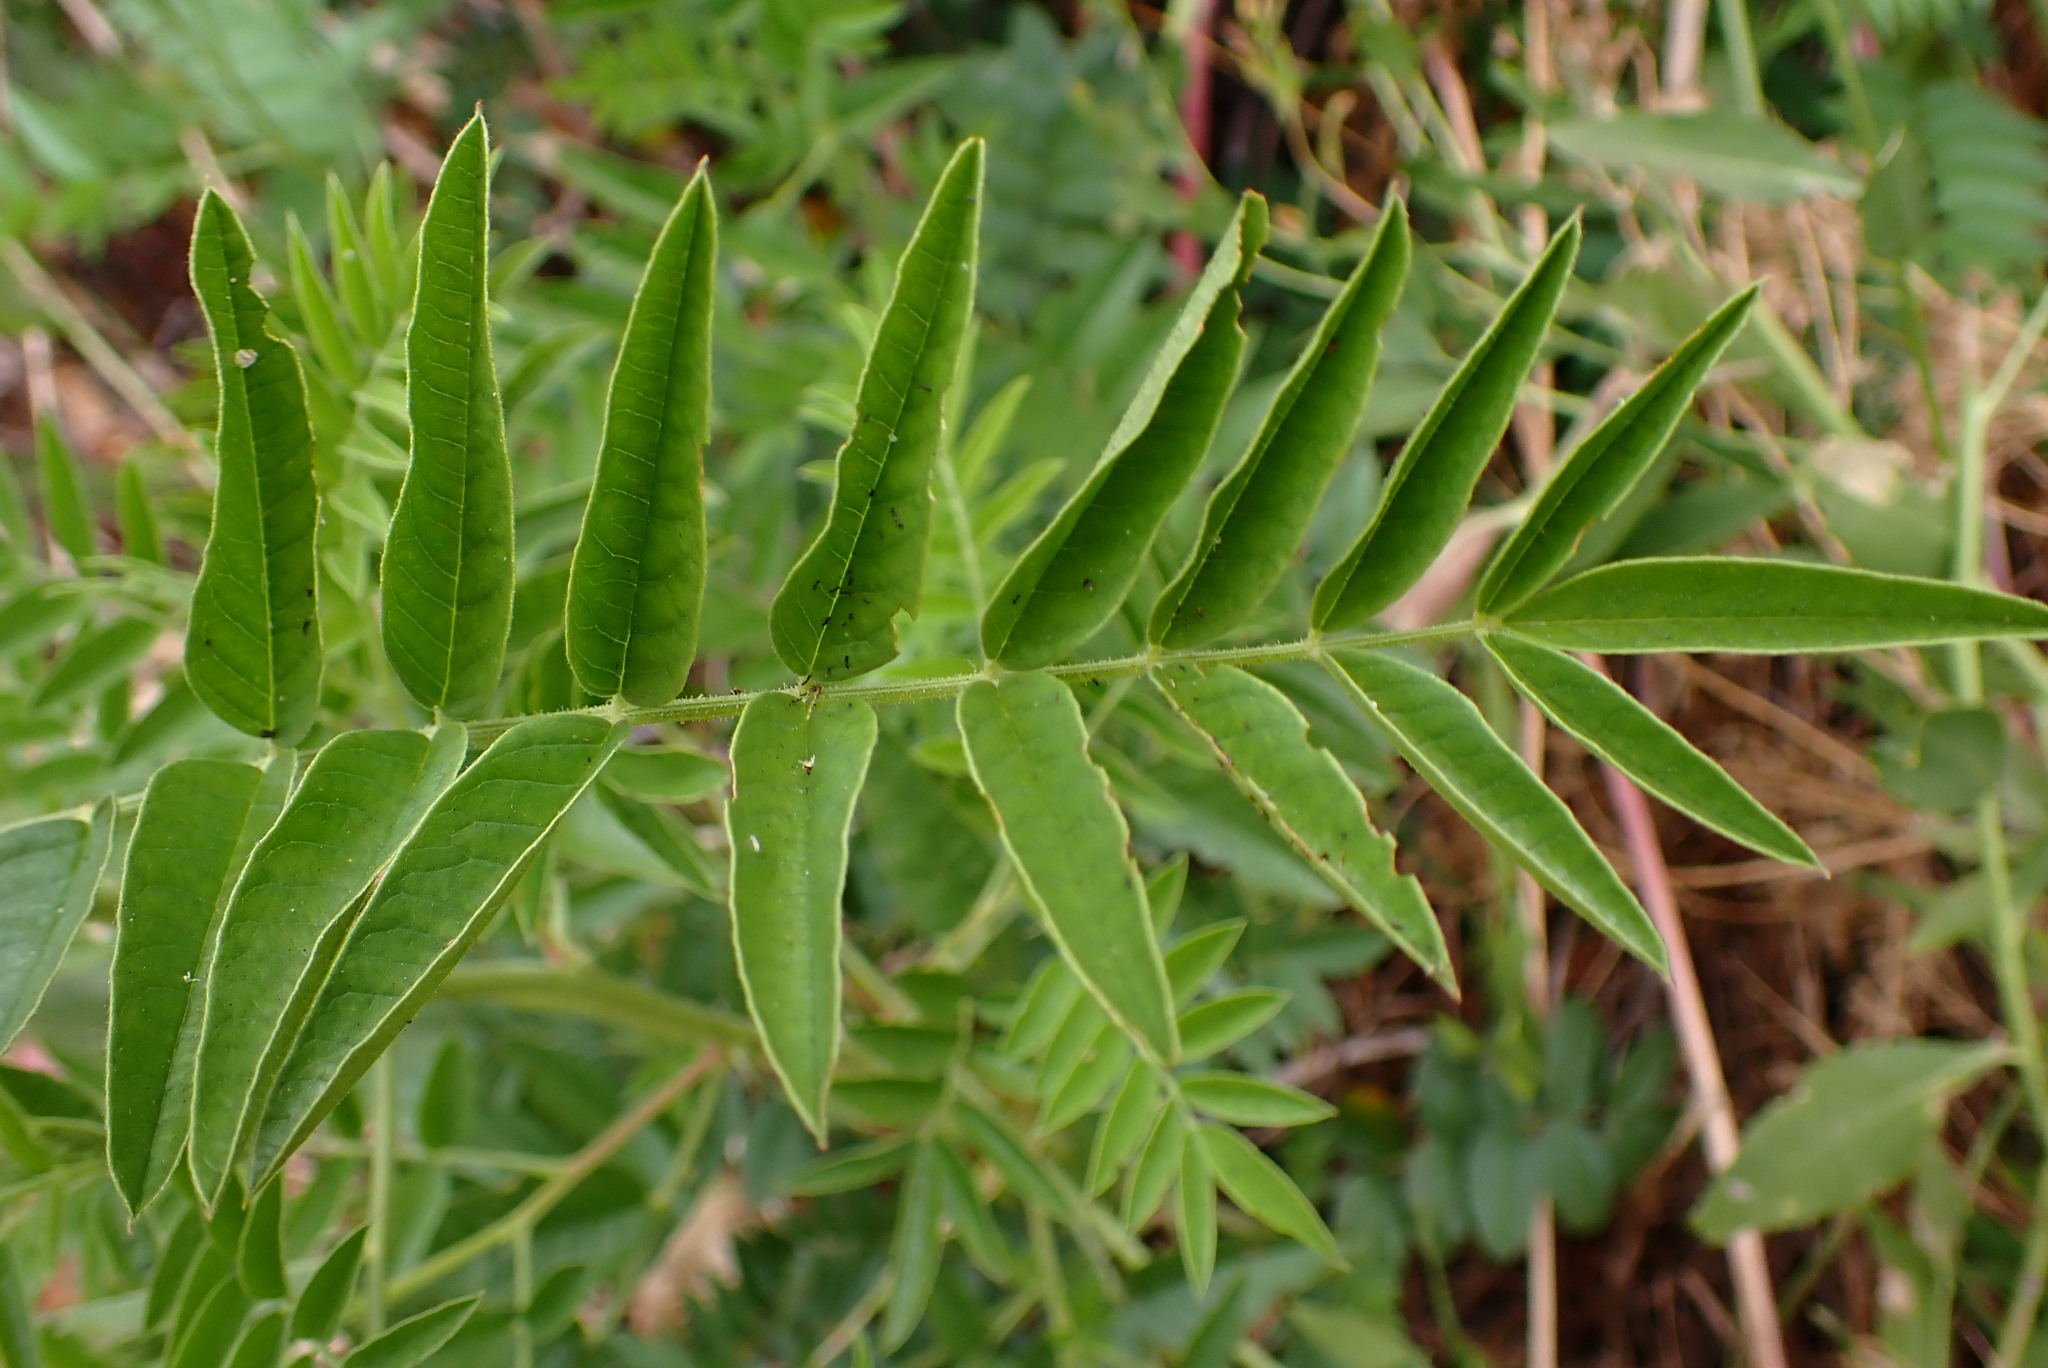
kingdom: Plantae
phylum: Tracheophyta
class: Magnoliopsida
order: Fabales
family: Fabaceae
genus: Glycyrrhiza
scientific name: Glycyrrhiza lepidota
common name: American liquorice
